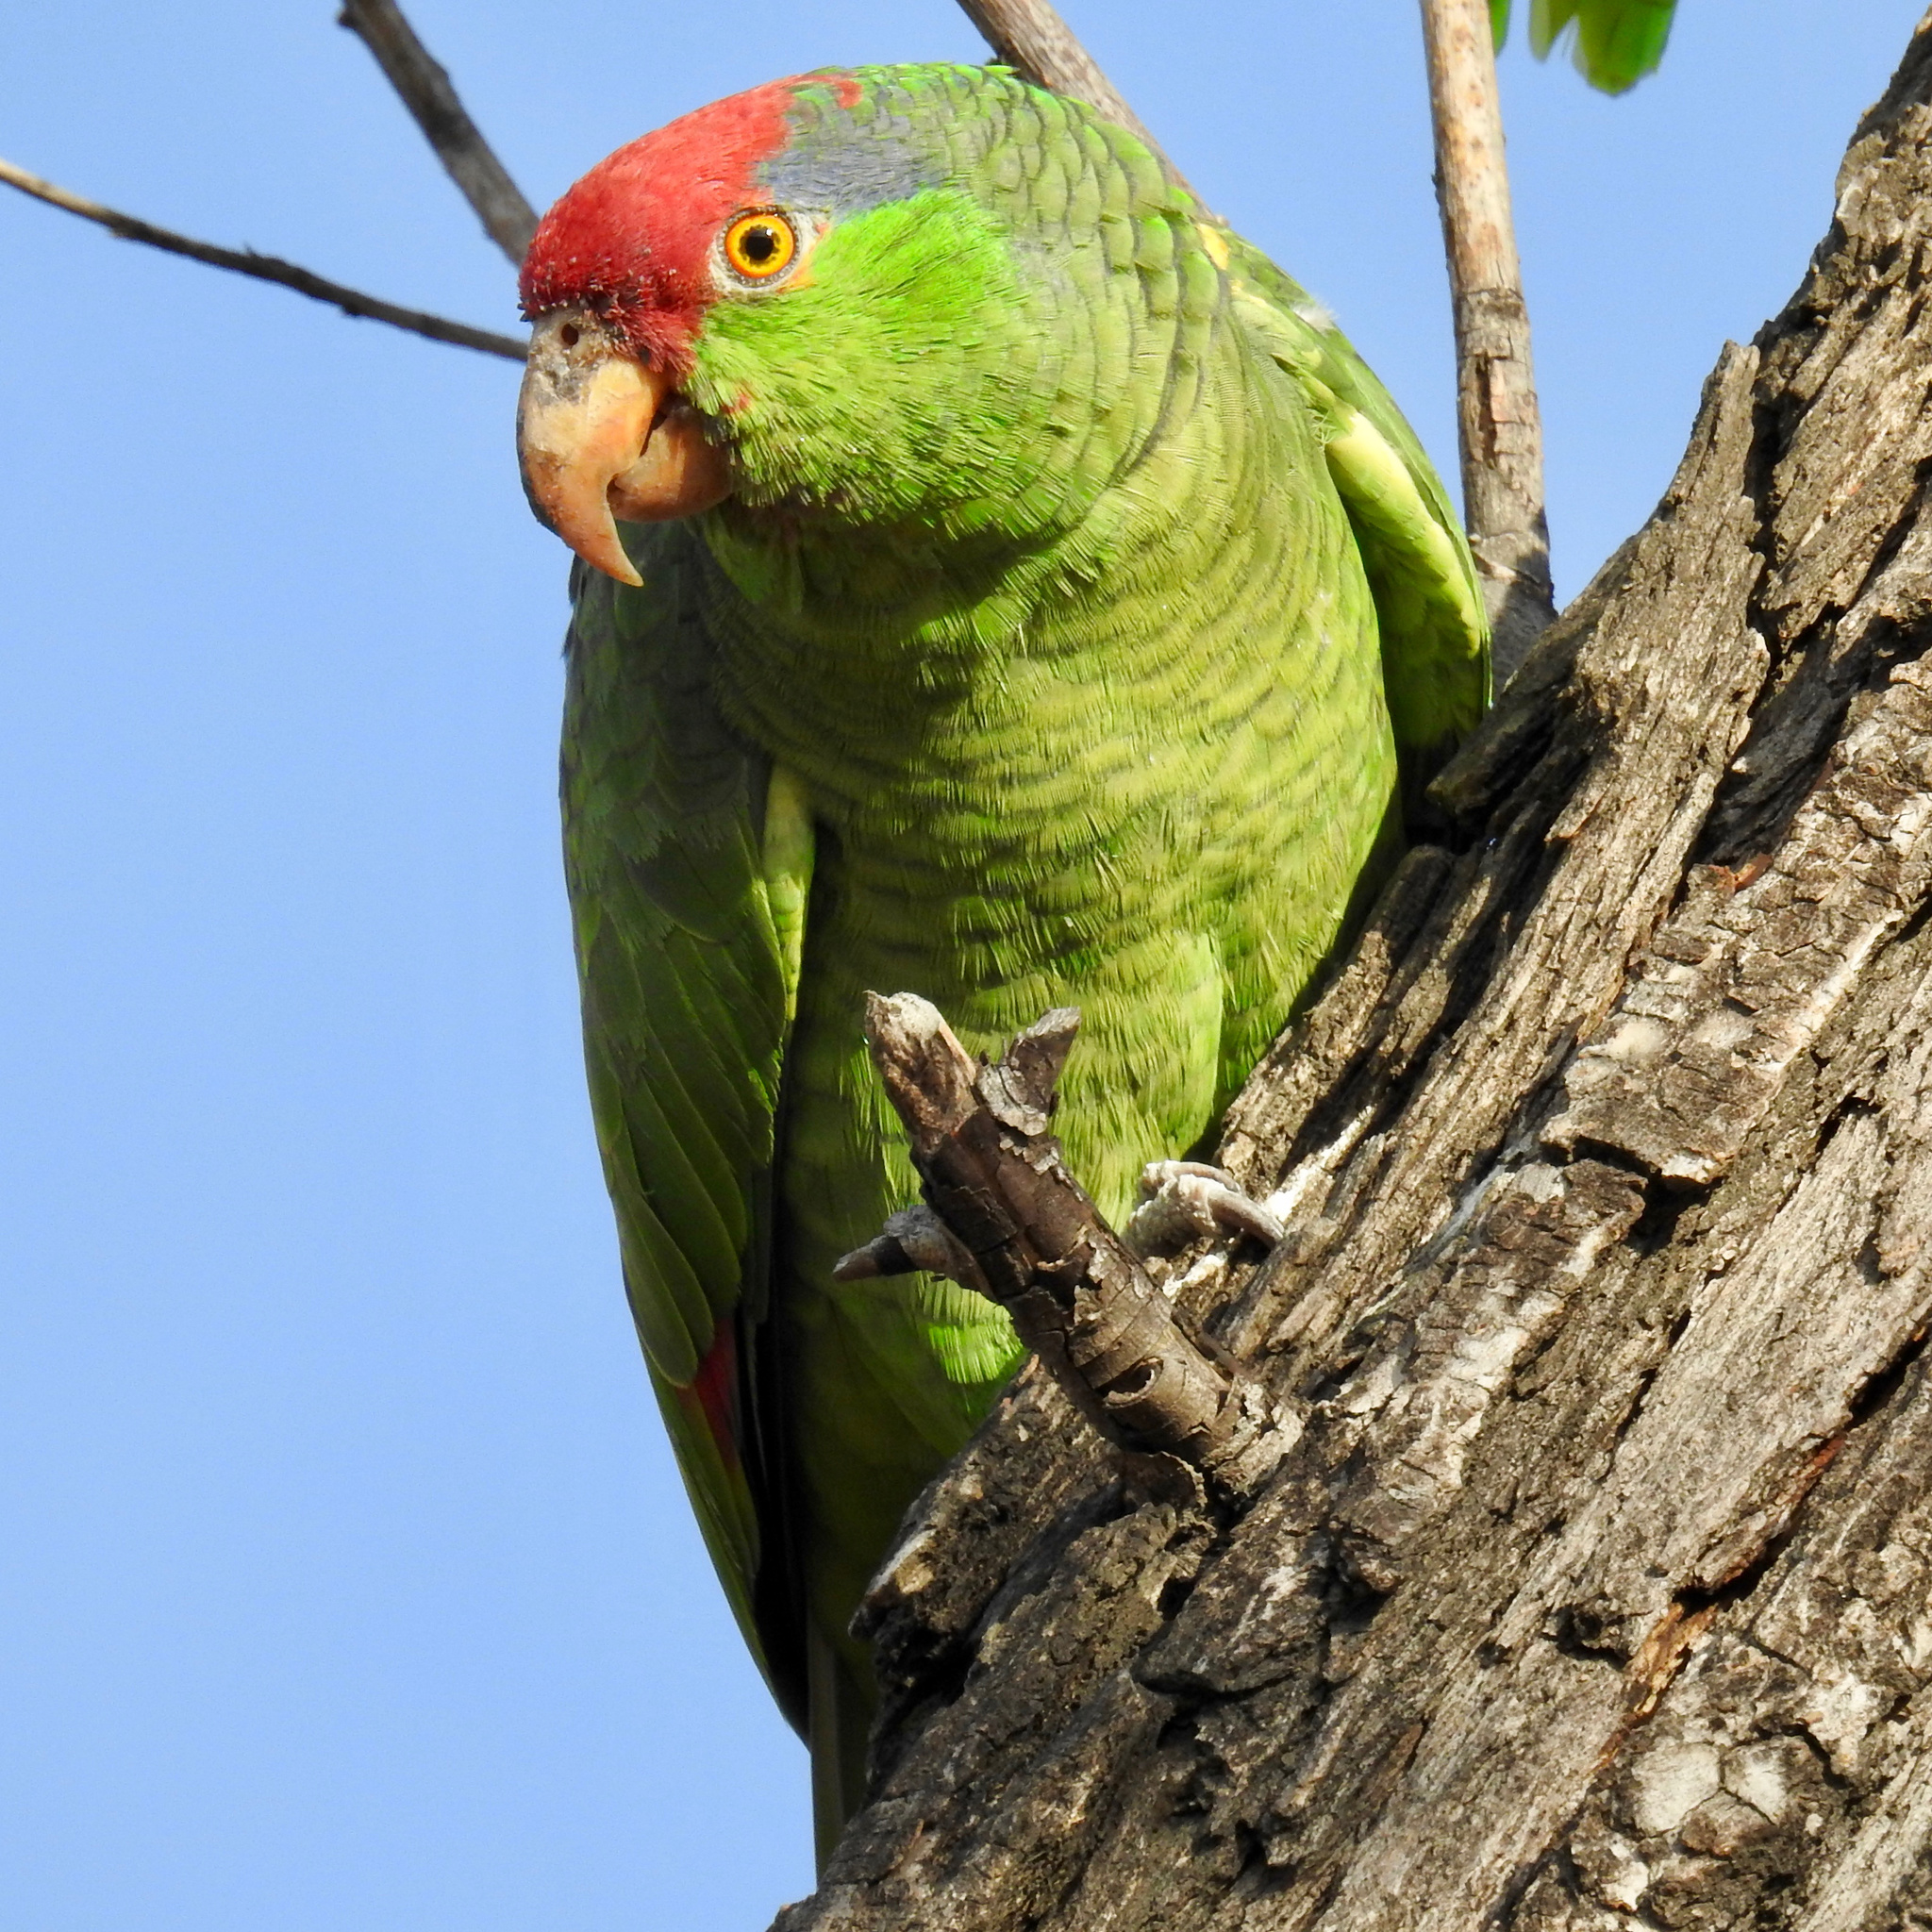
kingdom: Animalia
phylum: Chordata
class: Aves
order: Psittaciformes
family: Psittacidae
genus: Amazona
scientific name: Amazona viridigenalis
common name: Red-crowned amazon
